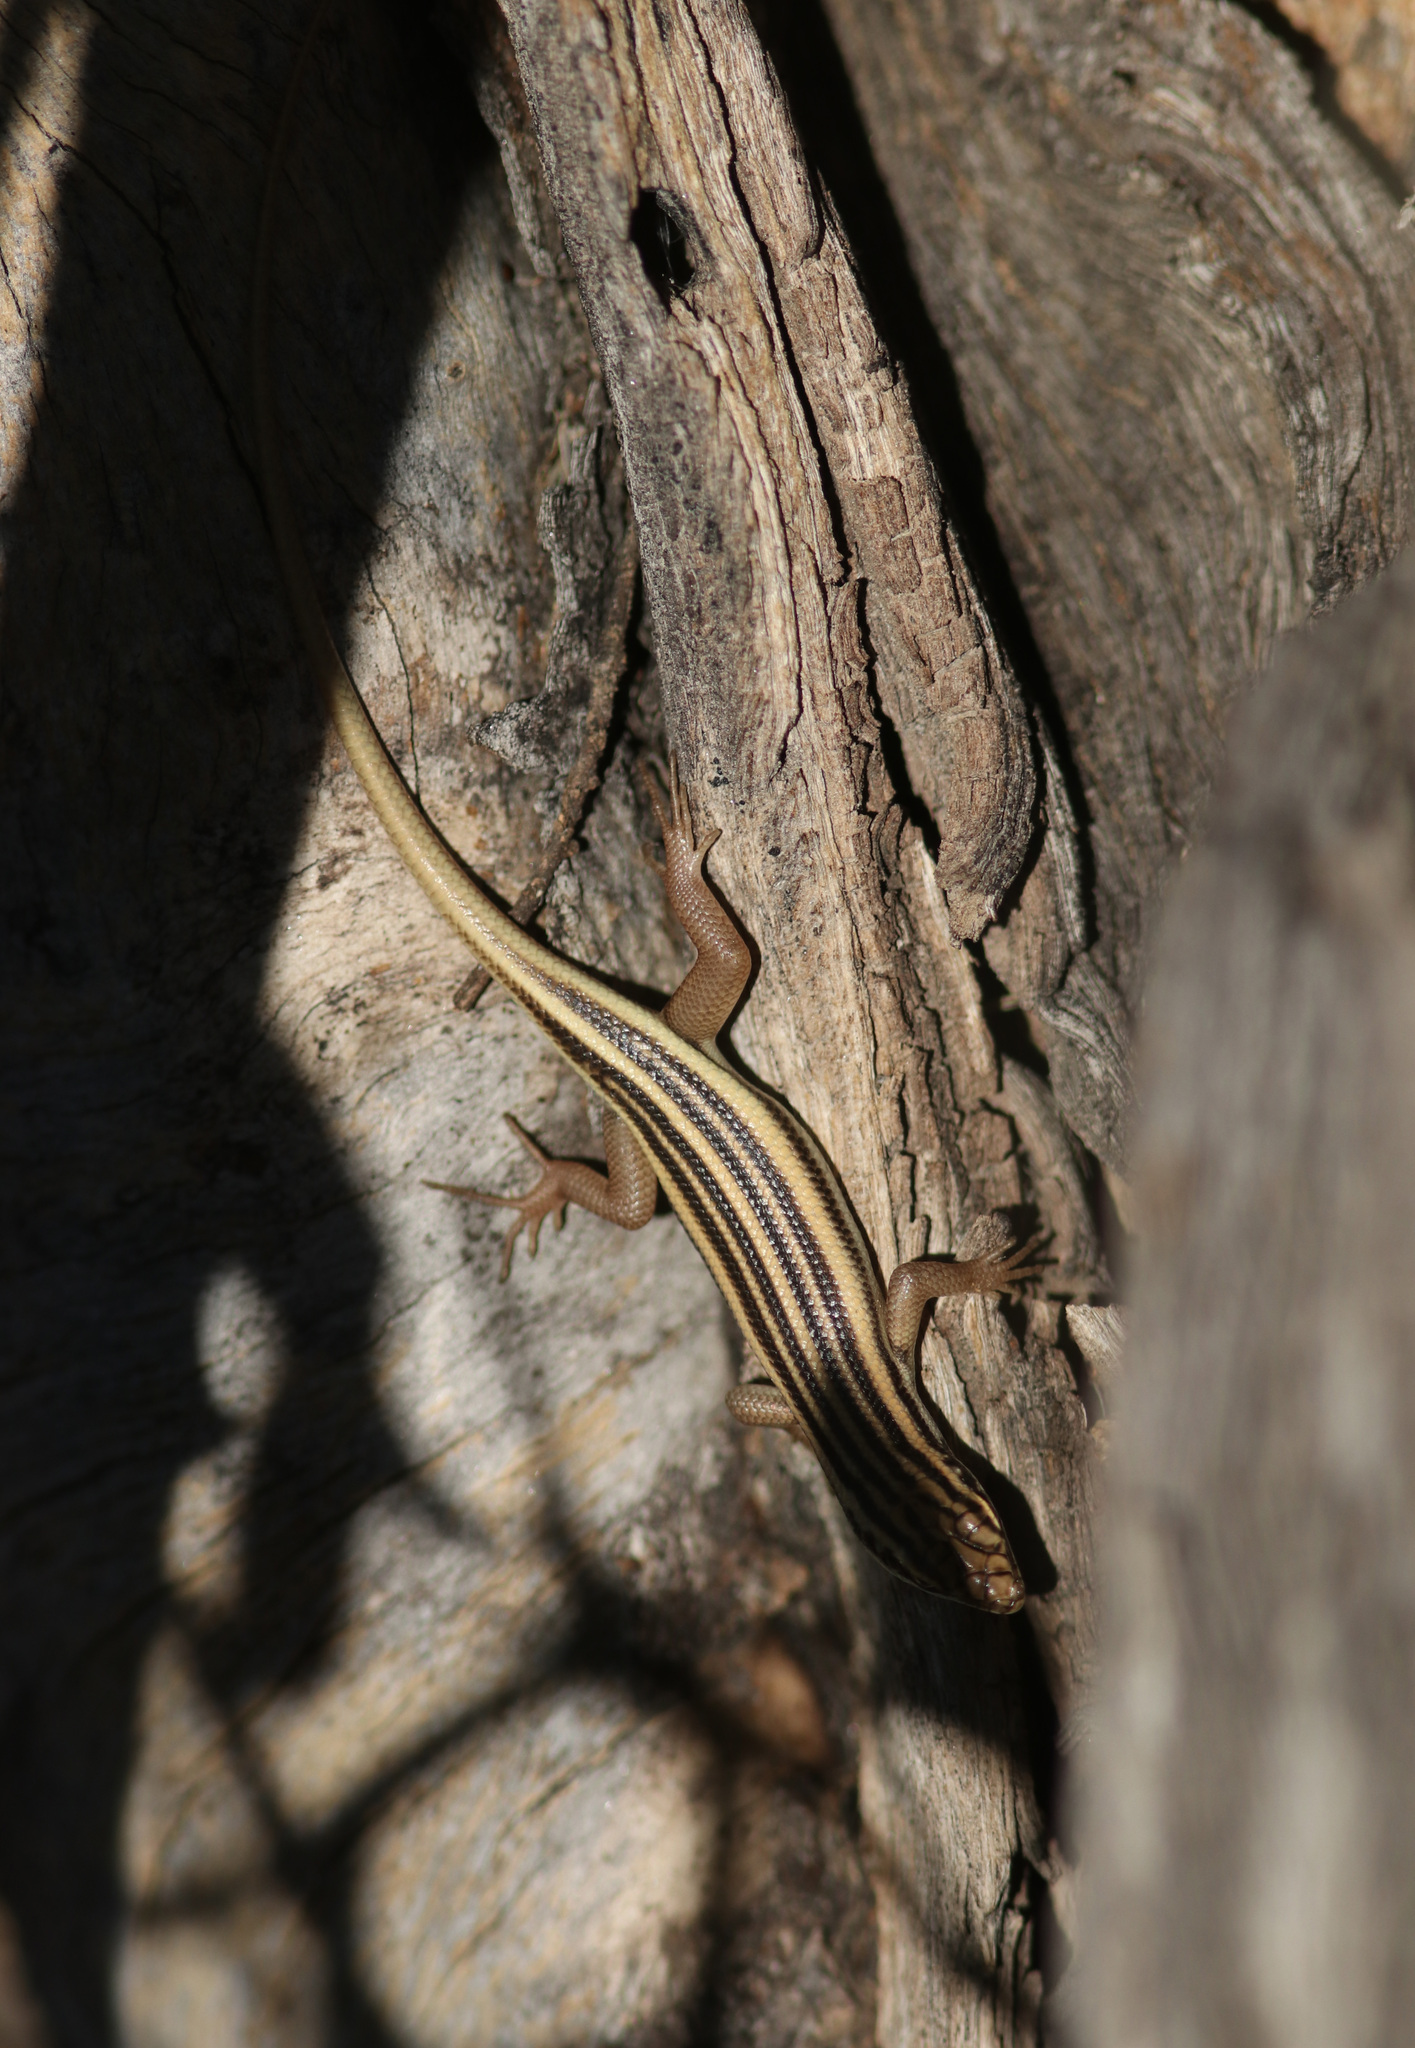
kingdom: Animalia
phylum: Chordata
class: Squamata
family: Scincidae
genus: Trachylepis
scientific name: Trachylepis sulcata
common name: Western rock skink
